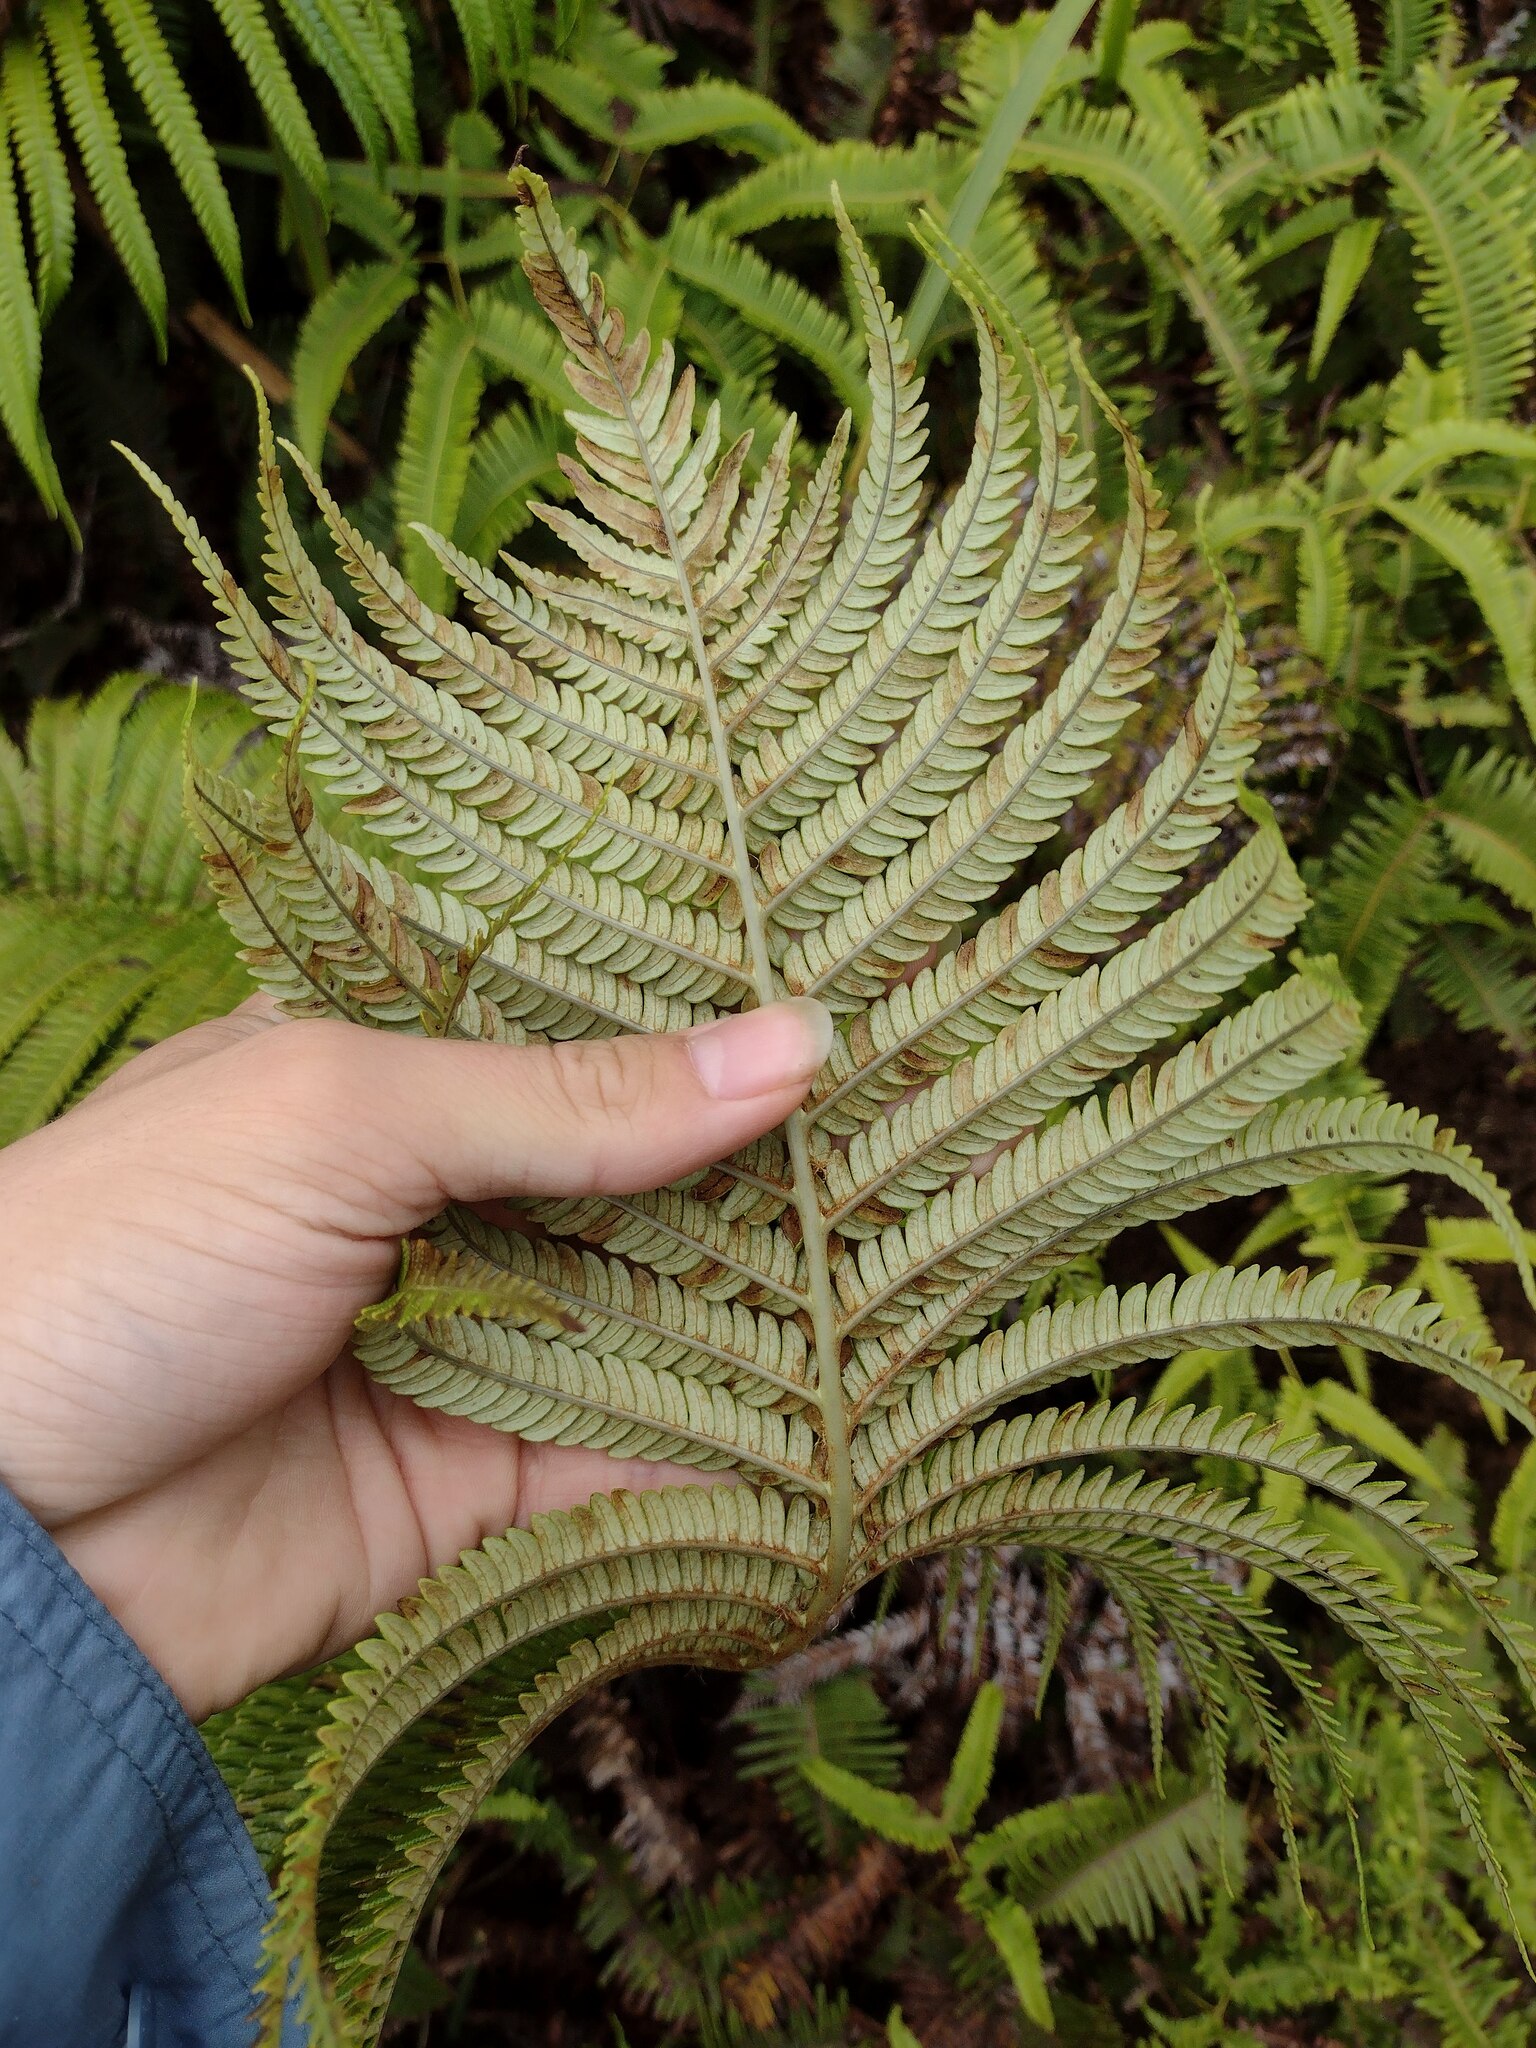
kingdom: Plantae
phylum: Tracheophyta
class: Polypodiopsida
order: Polypodiales
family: Blechnaceae
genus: Sadleria
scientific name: Sadleria cyatheoides
